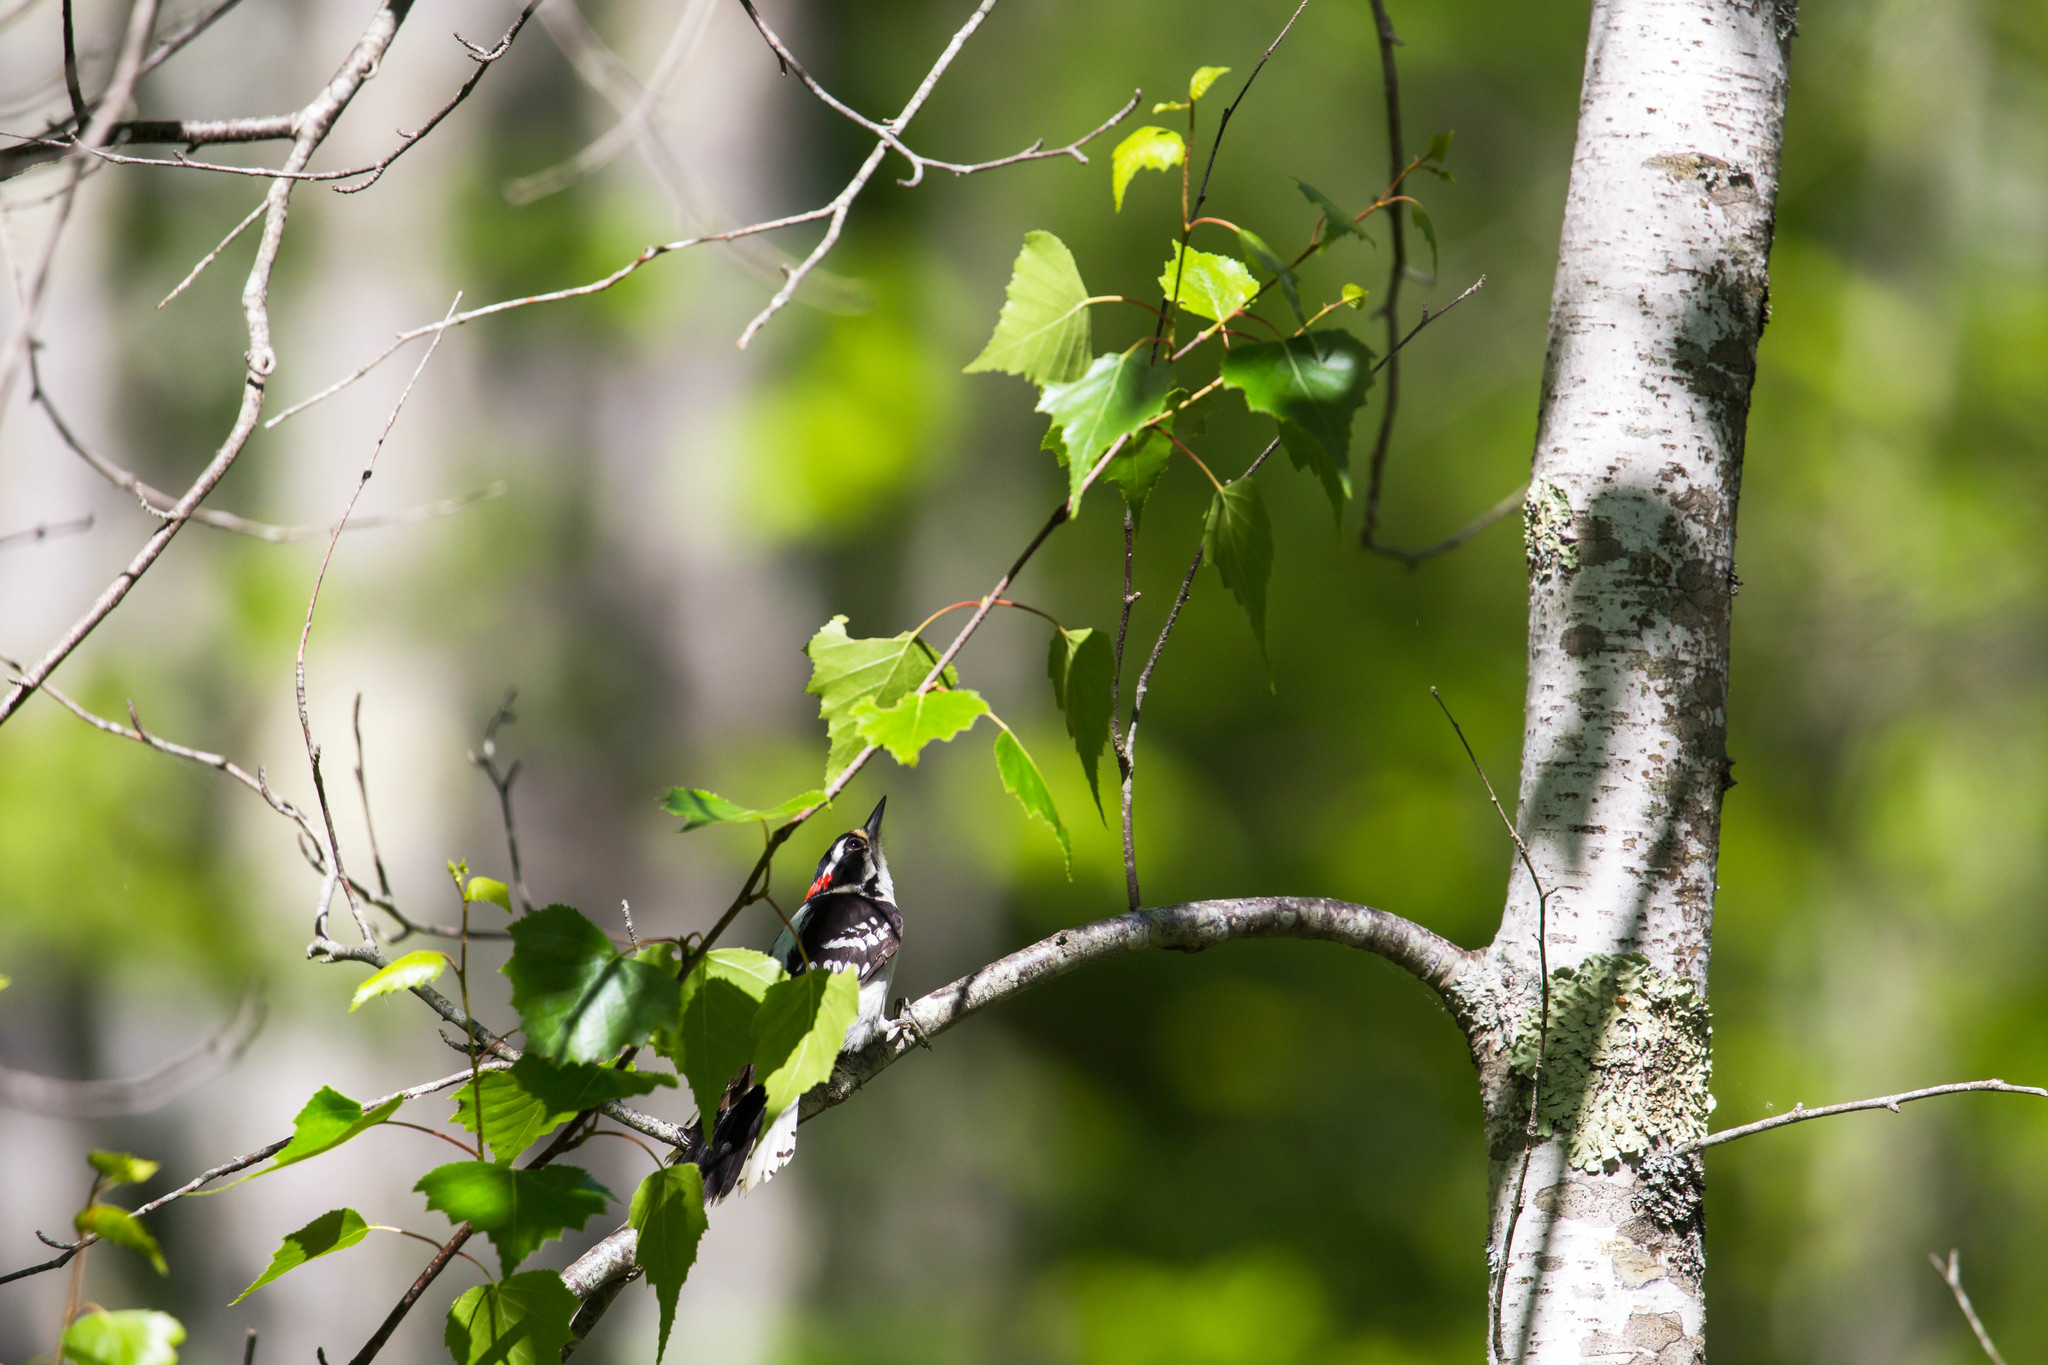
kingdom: Animalia
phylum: Chordata
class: Aves
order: Piciformes
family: Picidae
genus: Dryobates
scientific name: Dryobates pubescens
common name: Downy woodpecker
